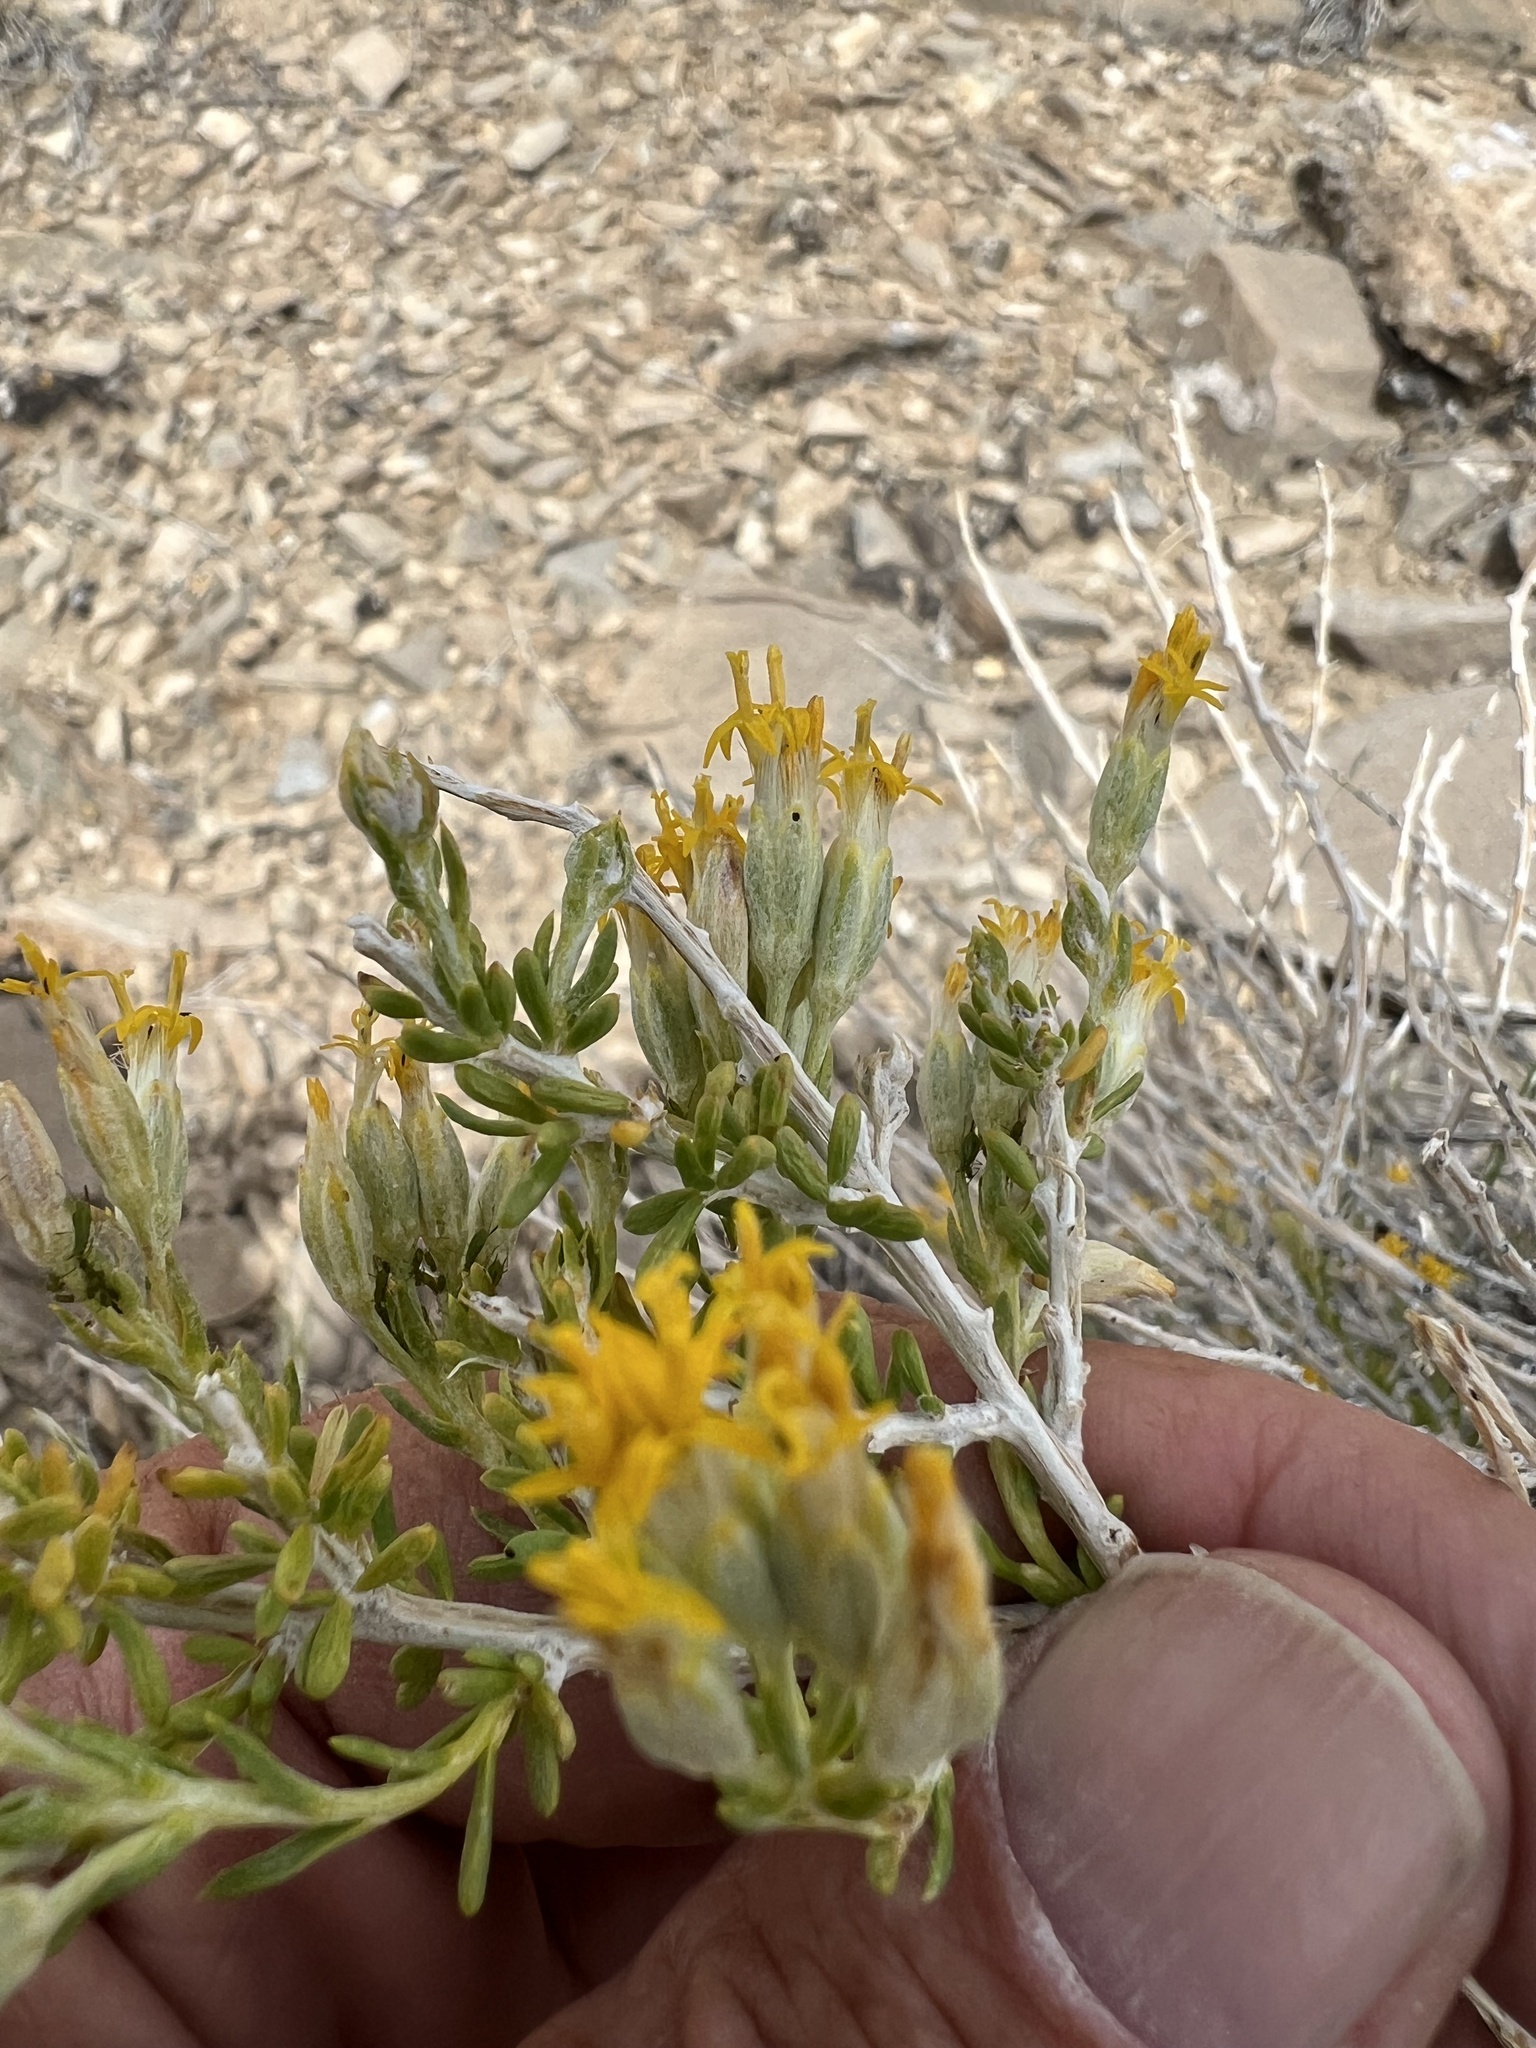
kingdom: Plantae
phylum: Tracheophyta
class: Magnoliopsida
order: Asterales
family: Asteraceae
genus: Tetradymia
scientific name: Tetradymia glabrata
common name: Smooth tetradymia
